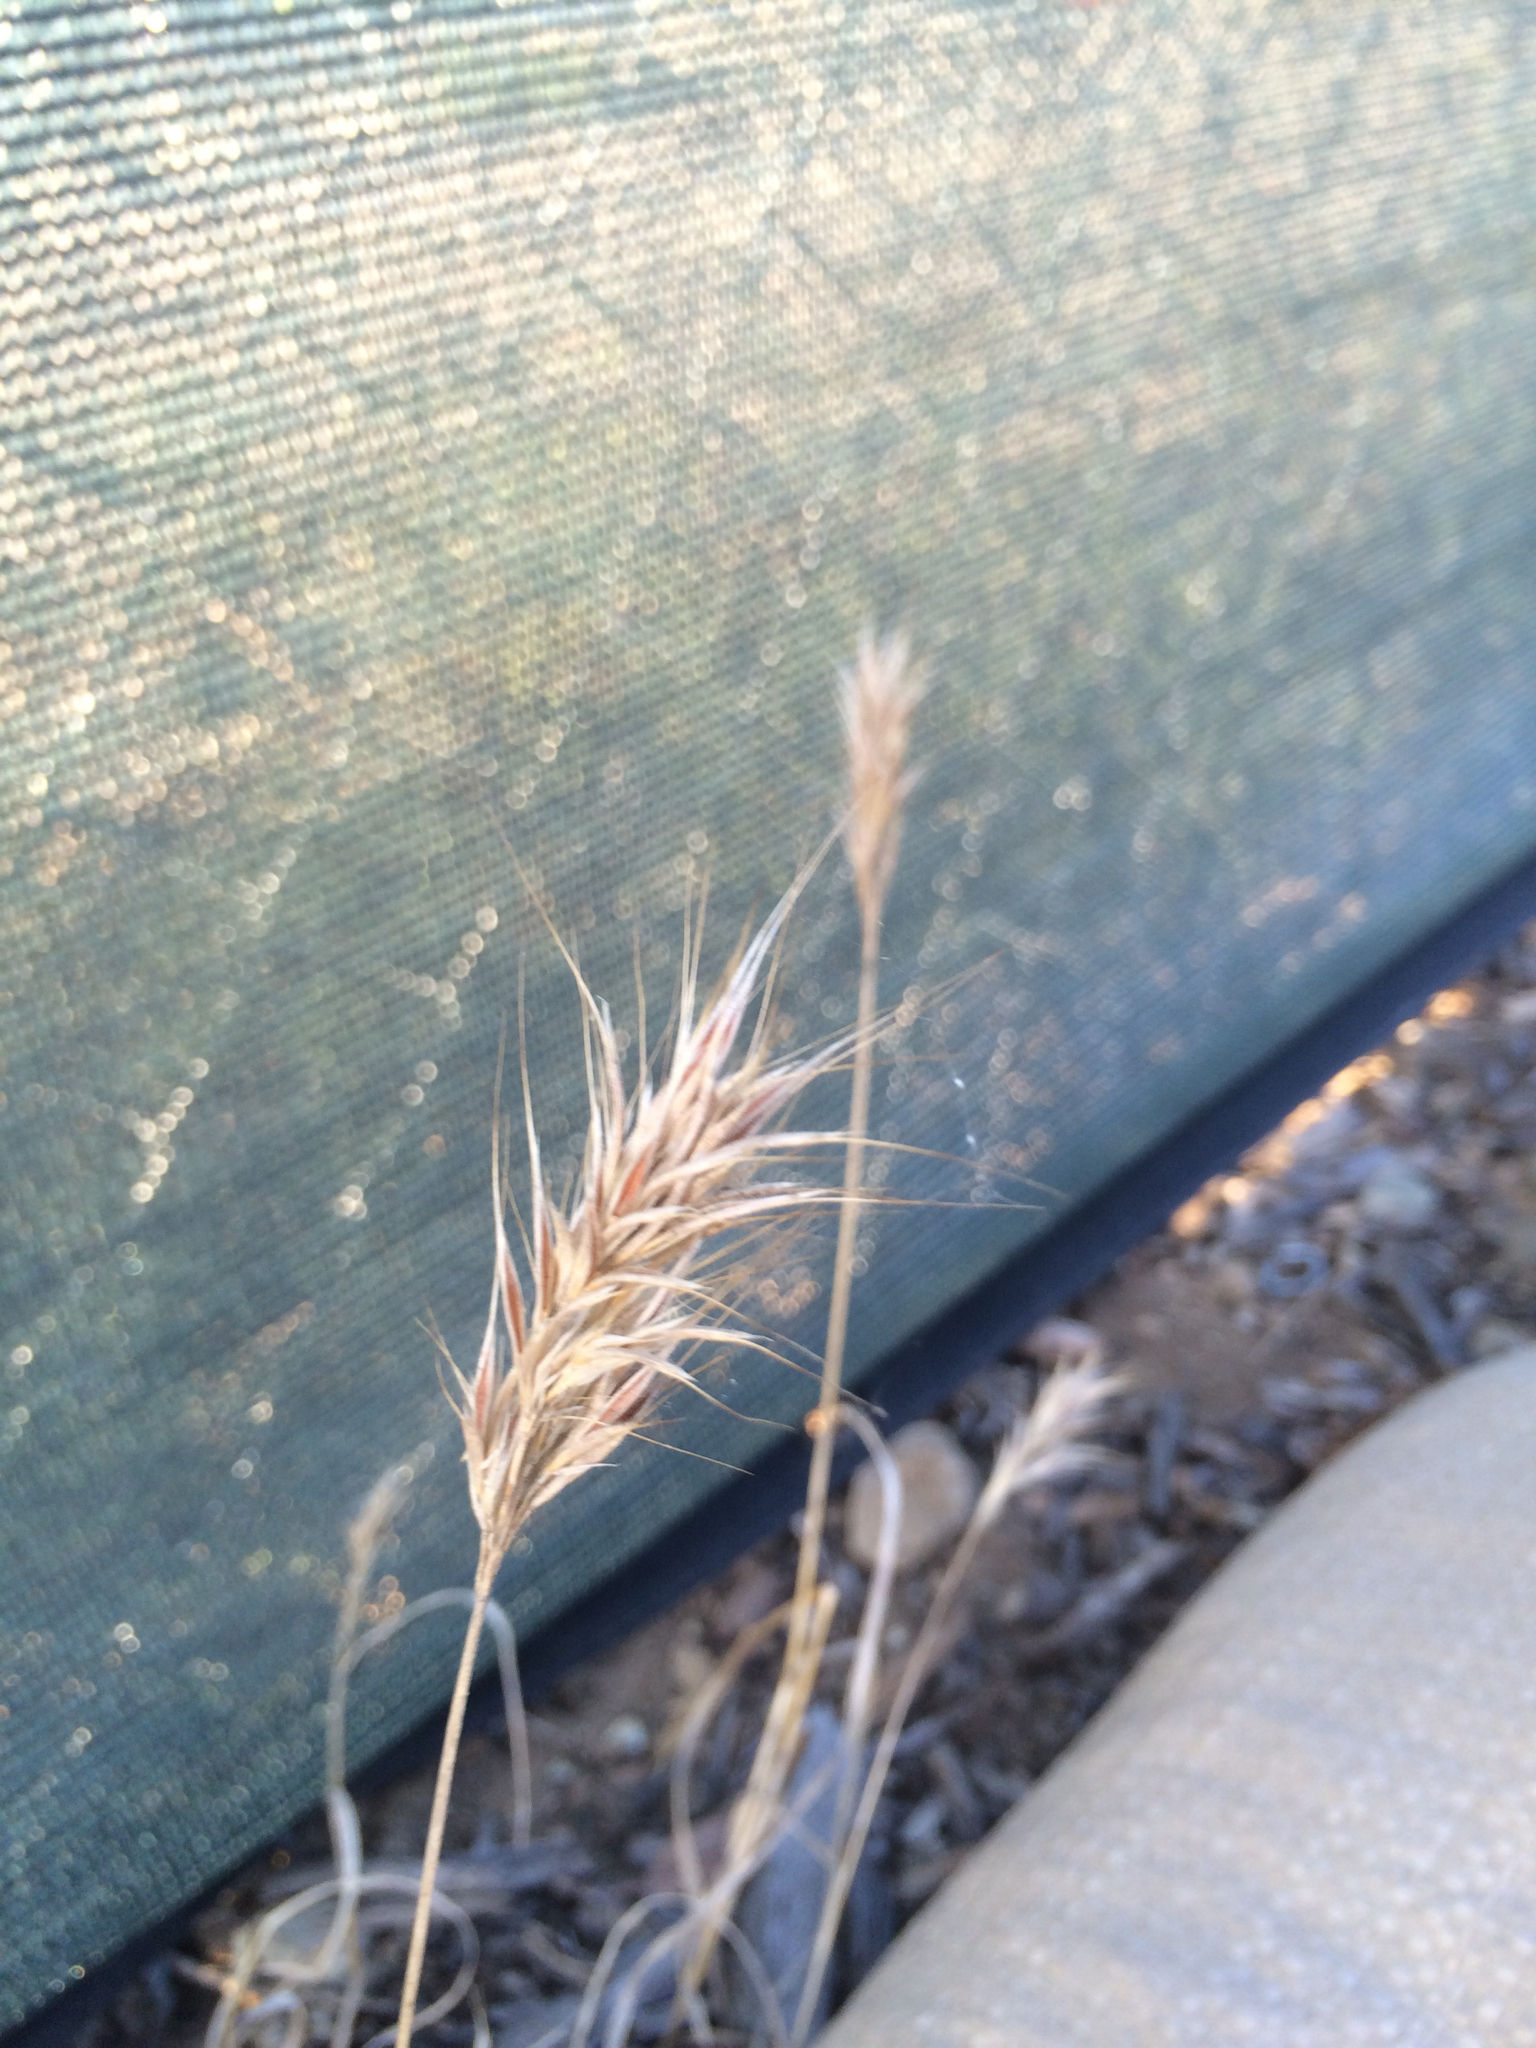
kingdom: Plantae
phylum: Tracheophyta
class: Liliopsida
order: Poales
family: Poaceae
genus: Bromus
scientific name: Bromus madritensis
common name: Compact brome
